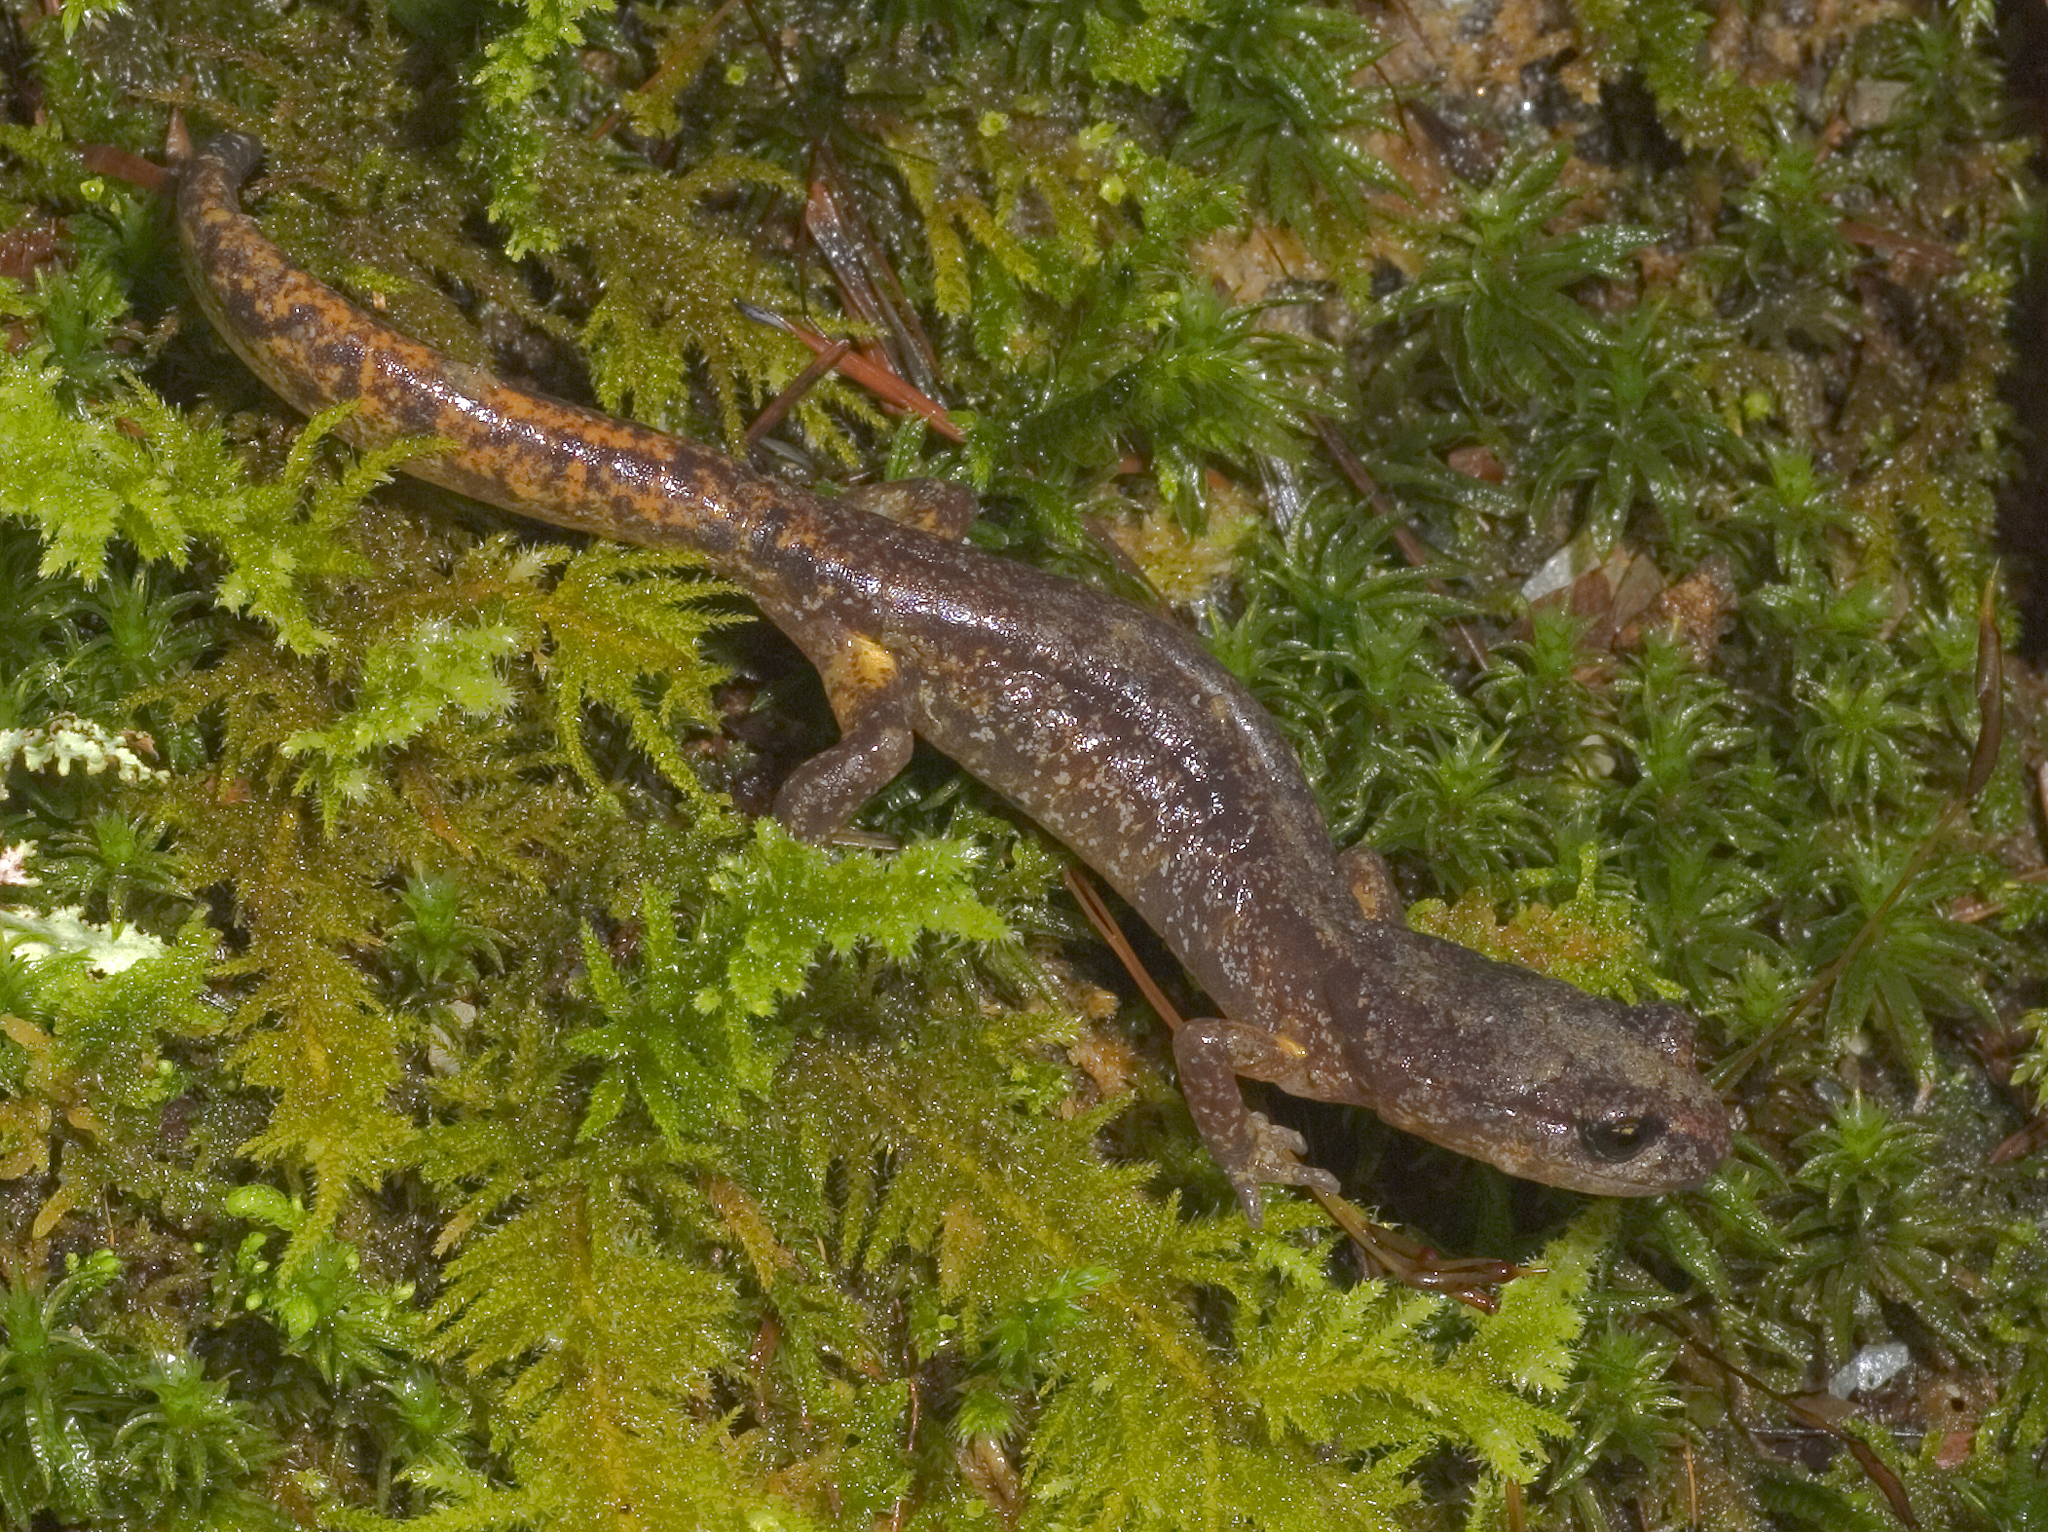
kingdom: Animalia
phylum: Chordata
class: Amphibia
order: Caudata
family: Plethodontidae
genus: Ensatina
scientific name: Ensatina eschscholtzii
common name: Ensatina
